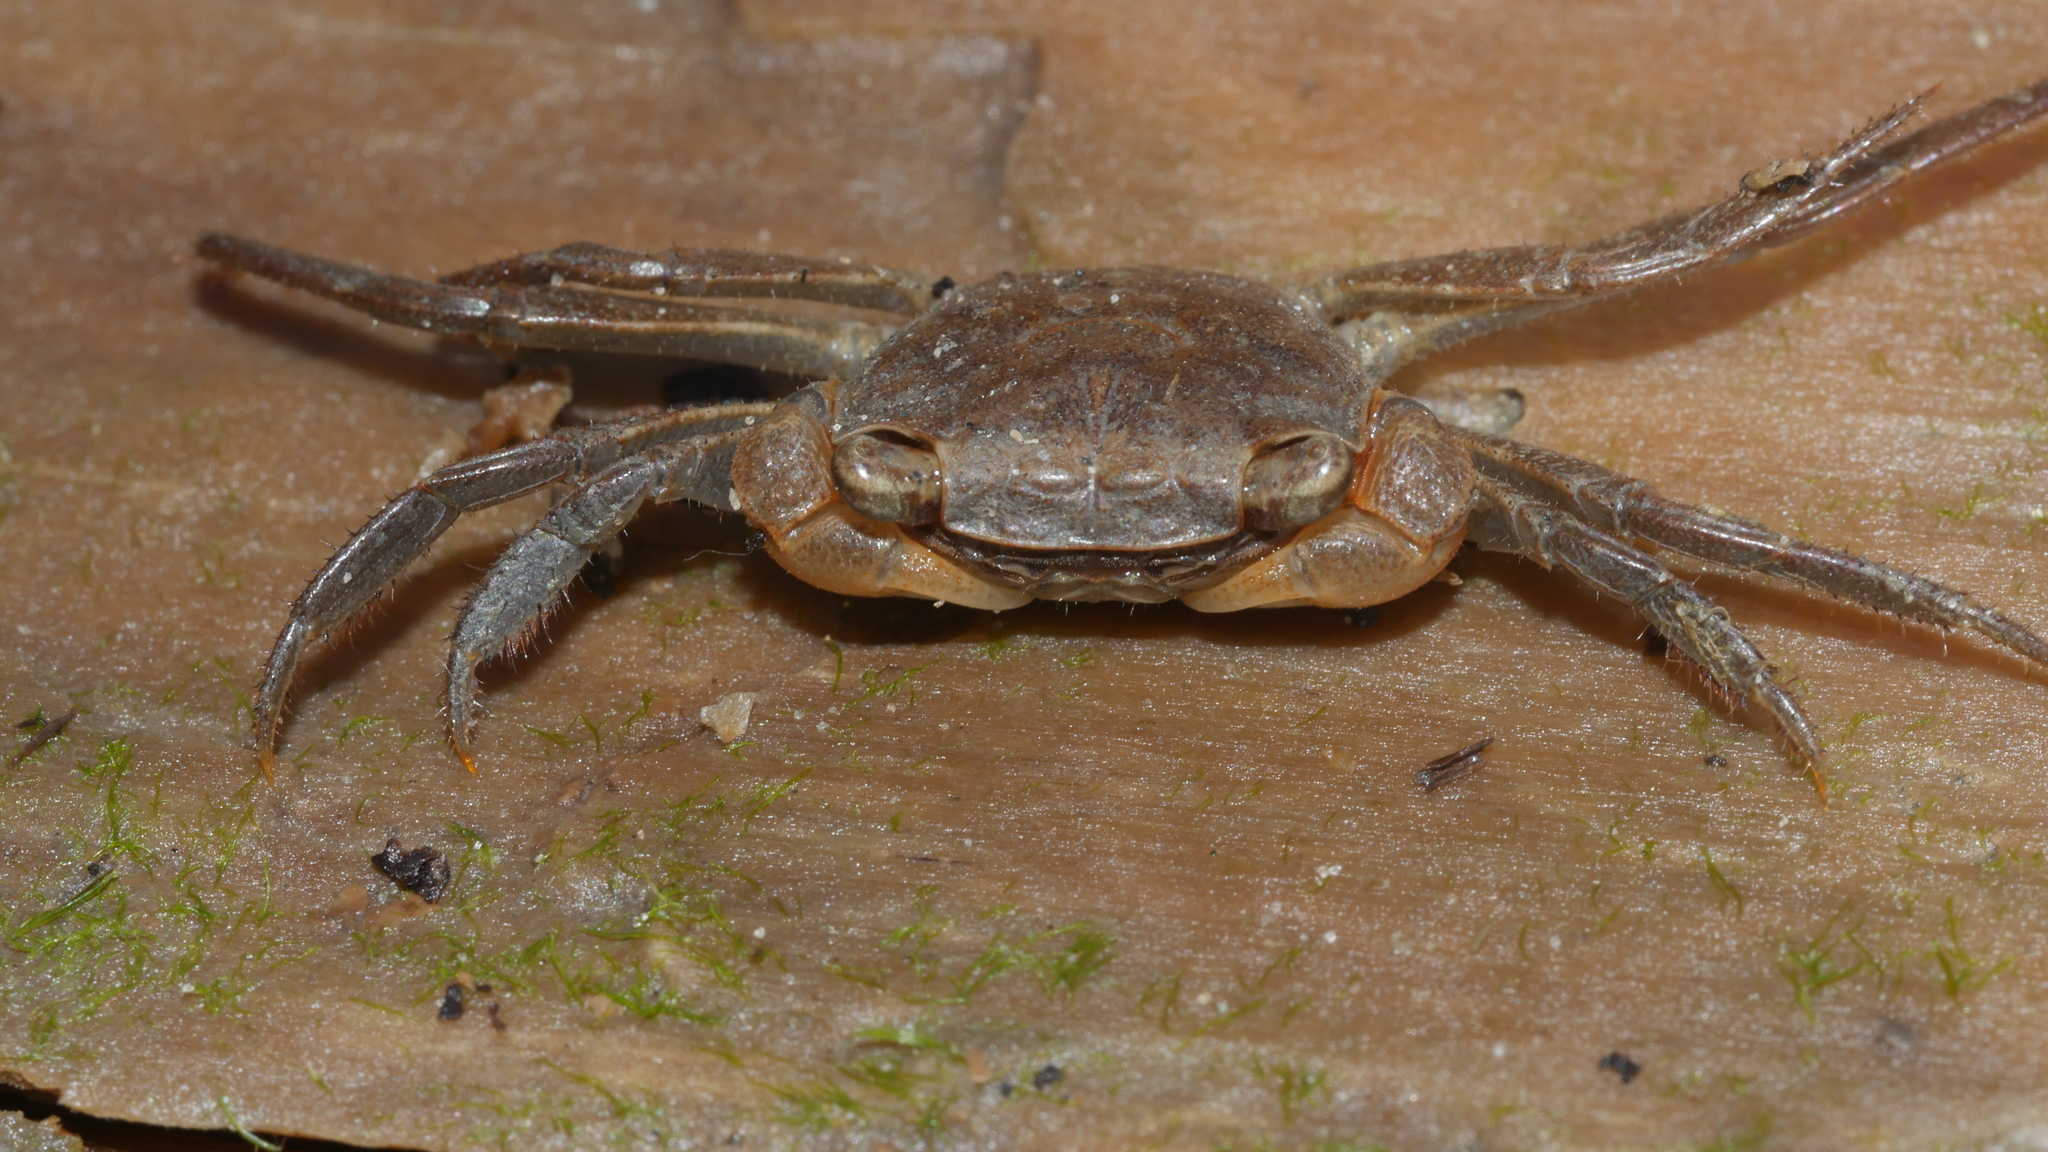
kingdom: Animalia
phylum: Arthropoda
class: Malacostraca
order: Decapoda
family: Sesarmidae
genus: Armases
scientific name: Armases cinereum
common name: Squareback marsh crab
